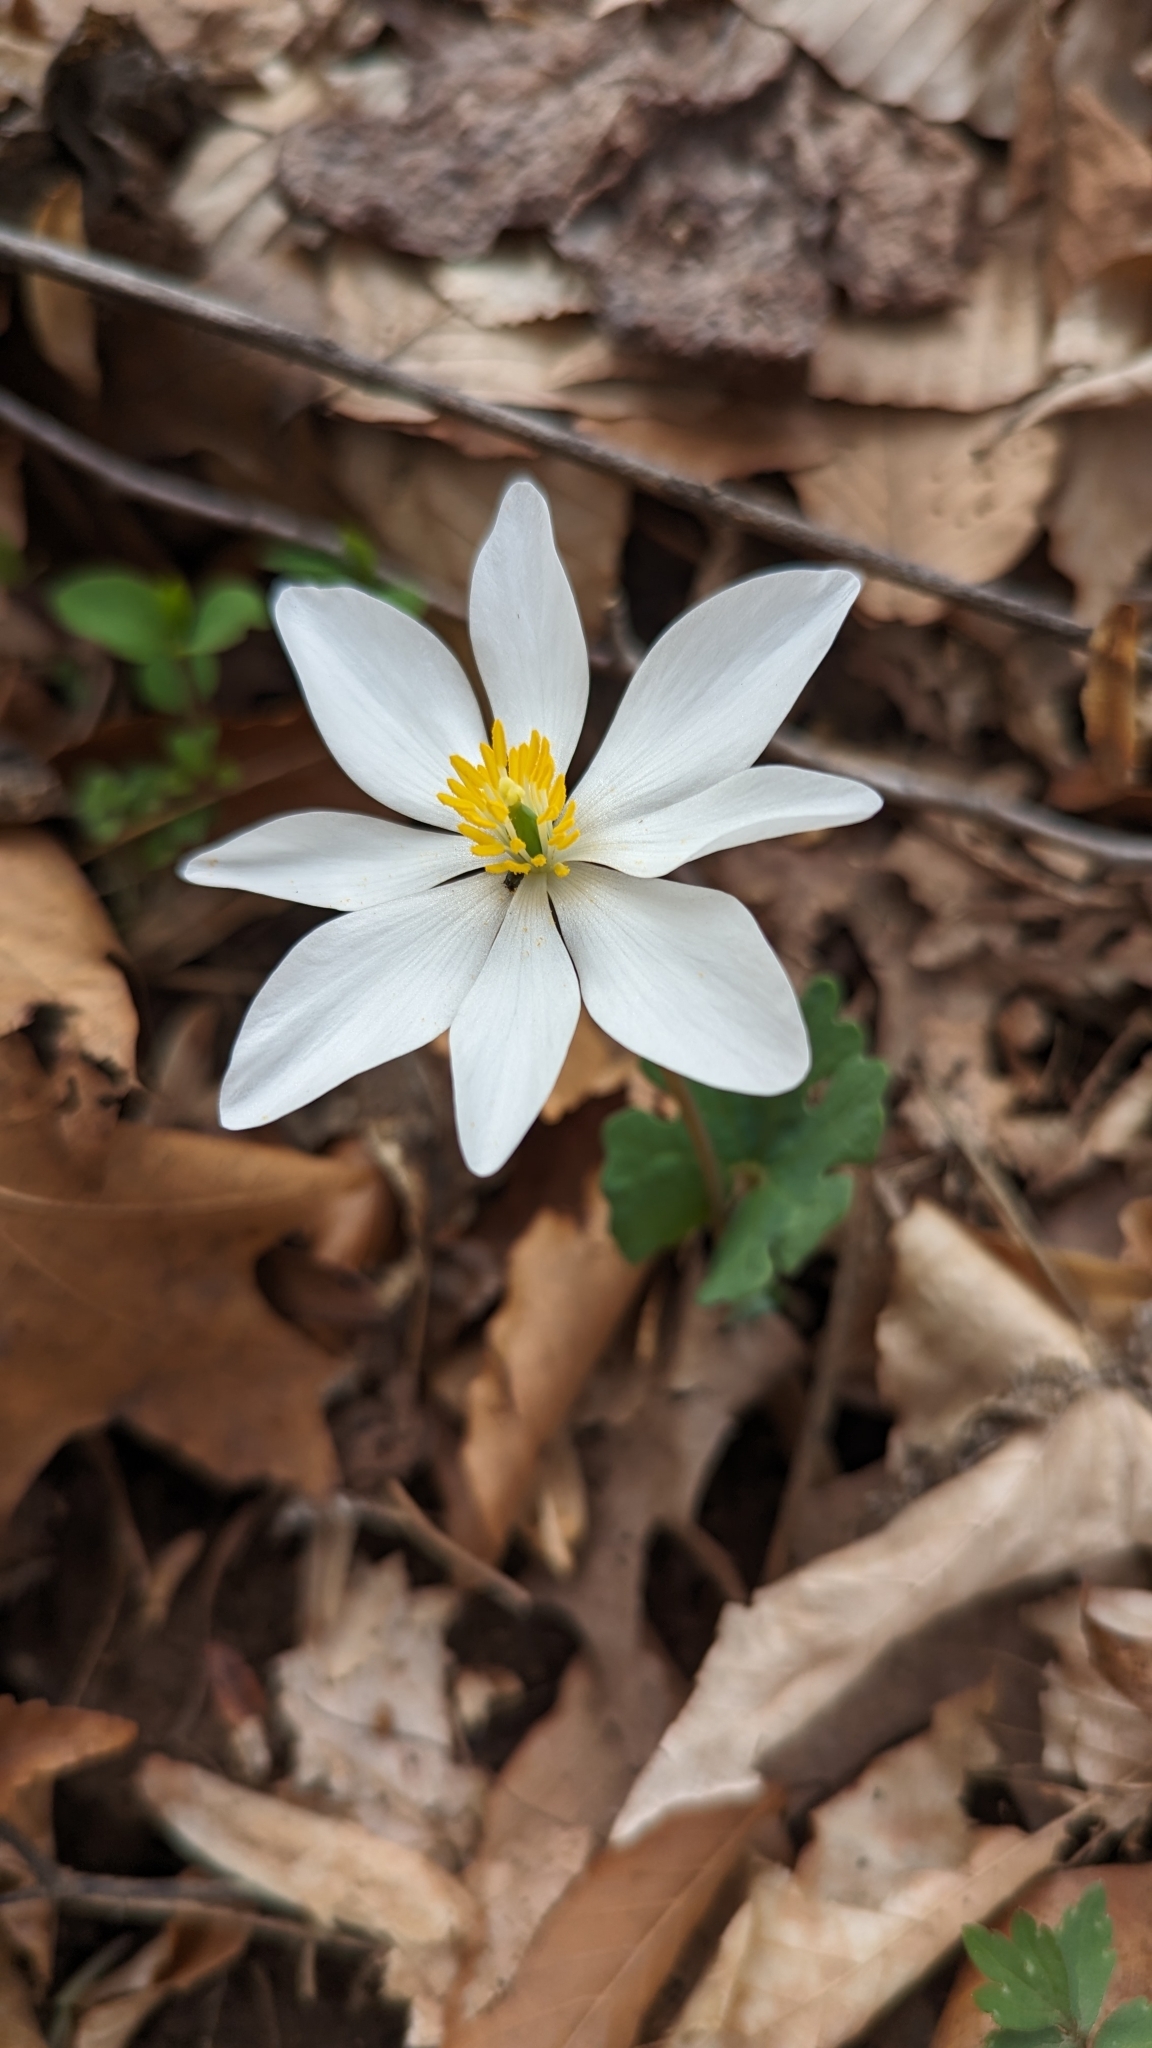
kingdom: Plantae
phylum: Tracheophyta
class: Magnoliopsida
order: Ranunculales
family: Papaveraceae
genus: Sanguinaria
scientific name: Sanguinaria canadensis
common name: Bloodroot
